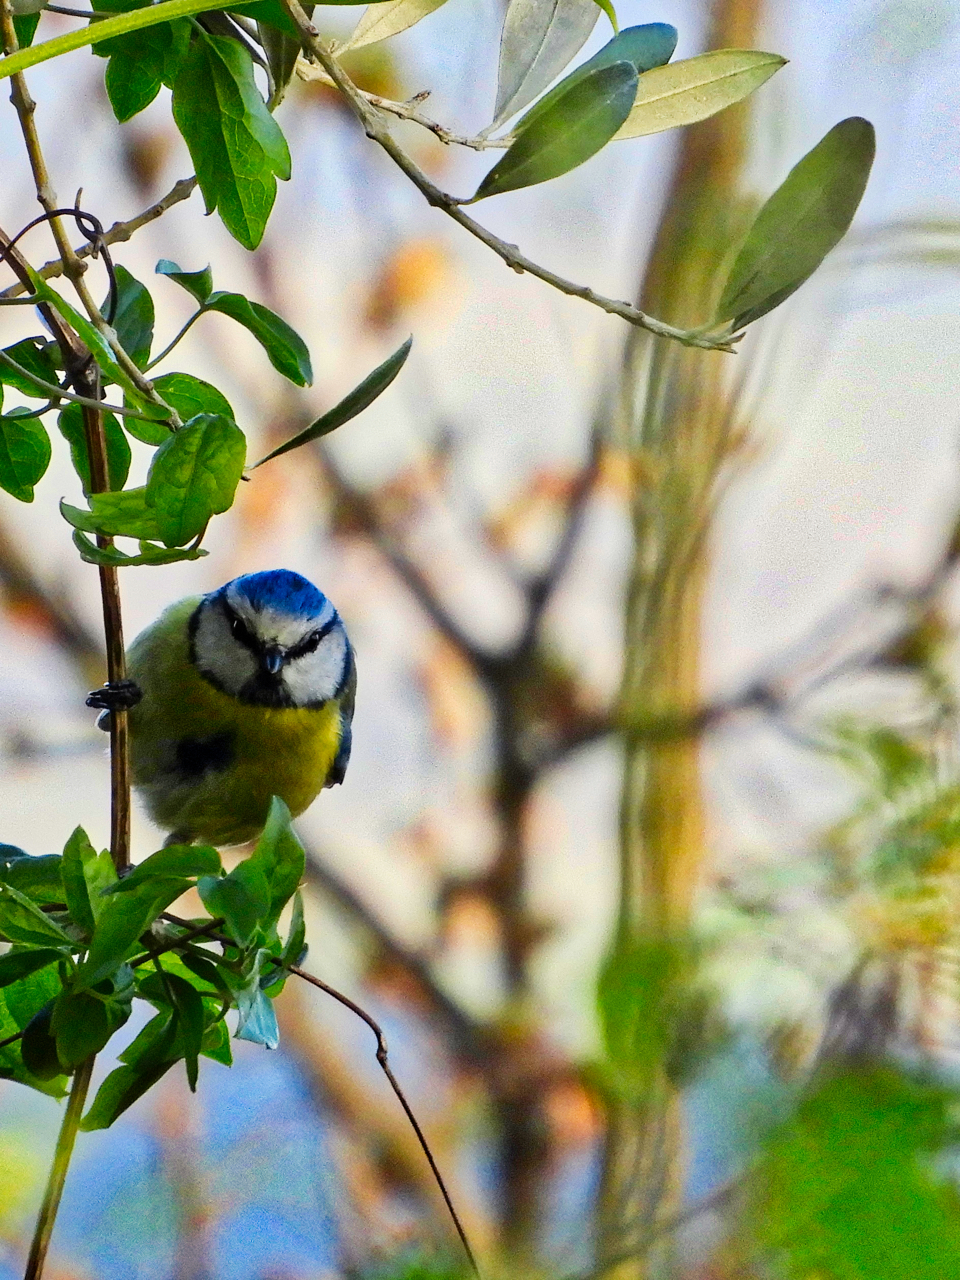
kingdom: Animalia
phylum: Chordata
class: Aves
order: Passeriformes
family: Paridae
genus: Cyanistes
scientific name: Cyanistes caeruleus
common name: Eurasian blue tit
